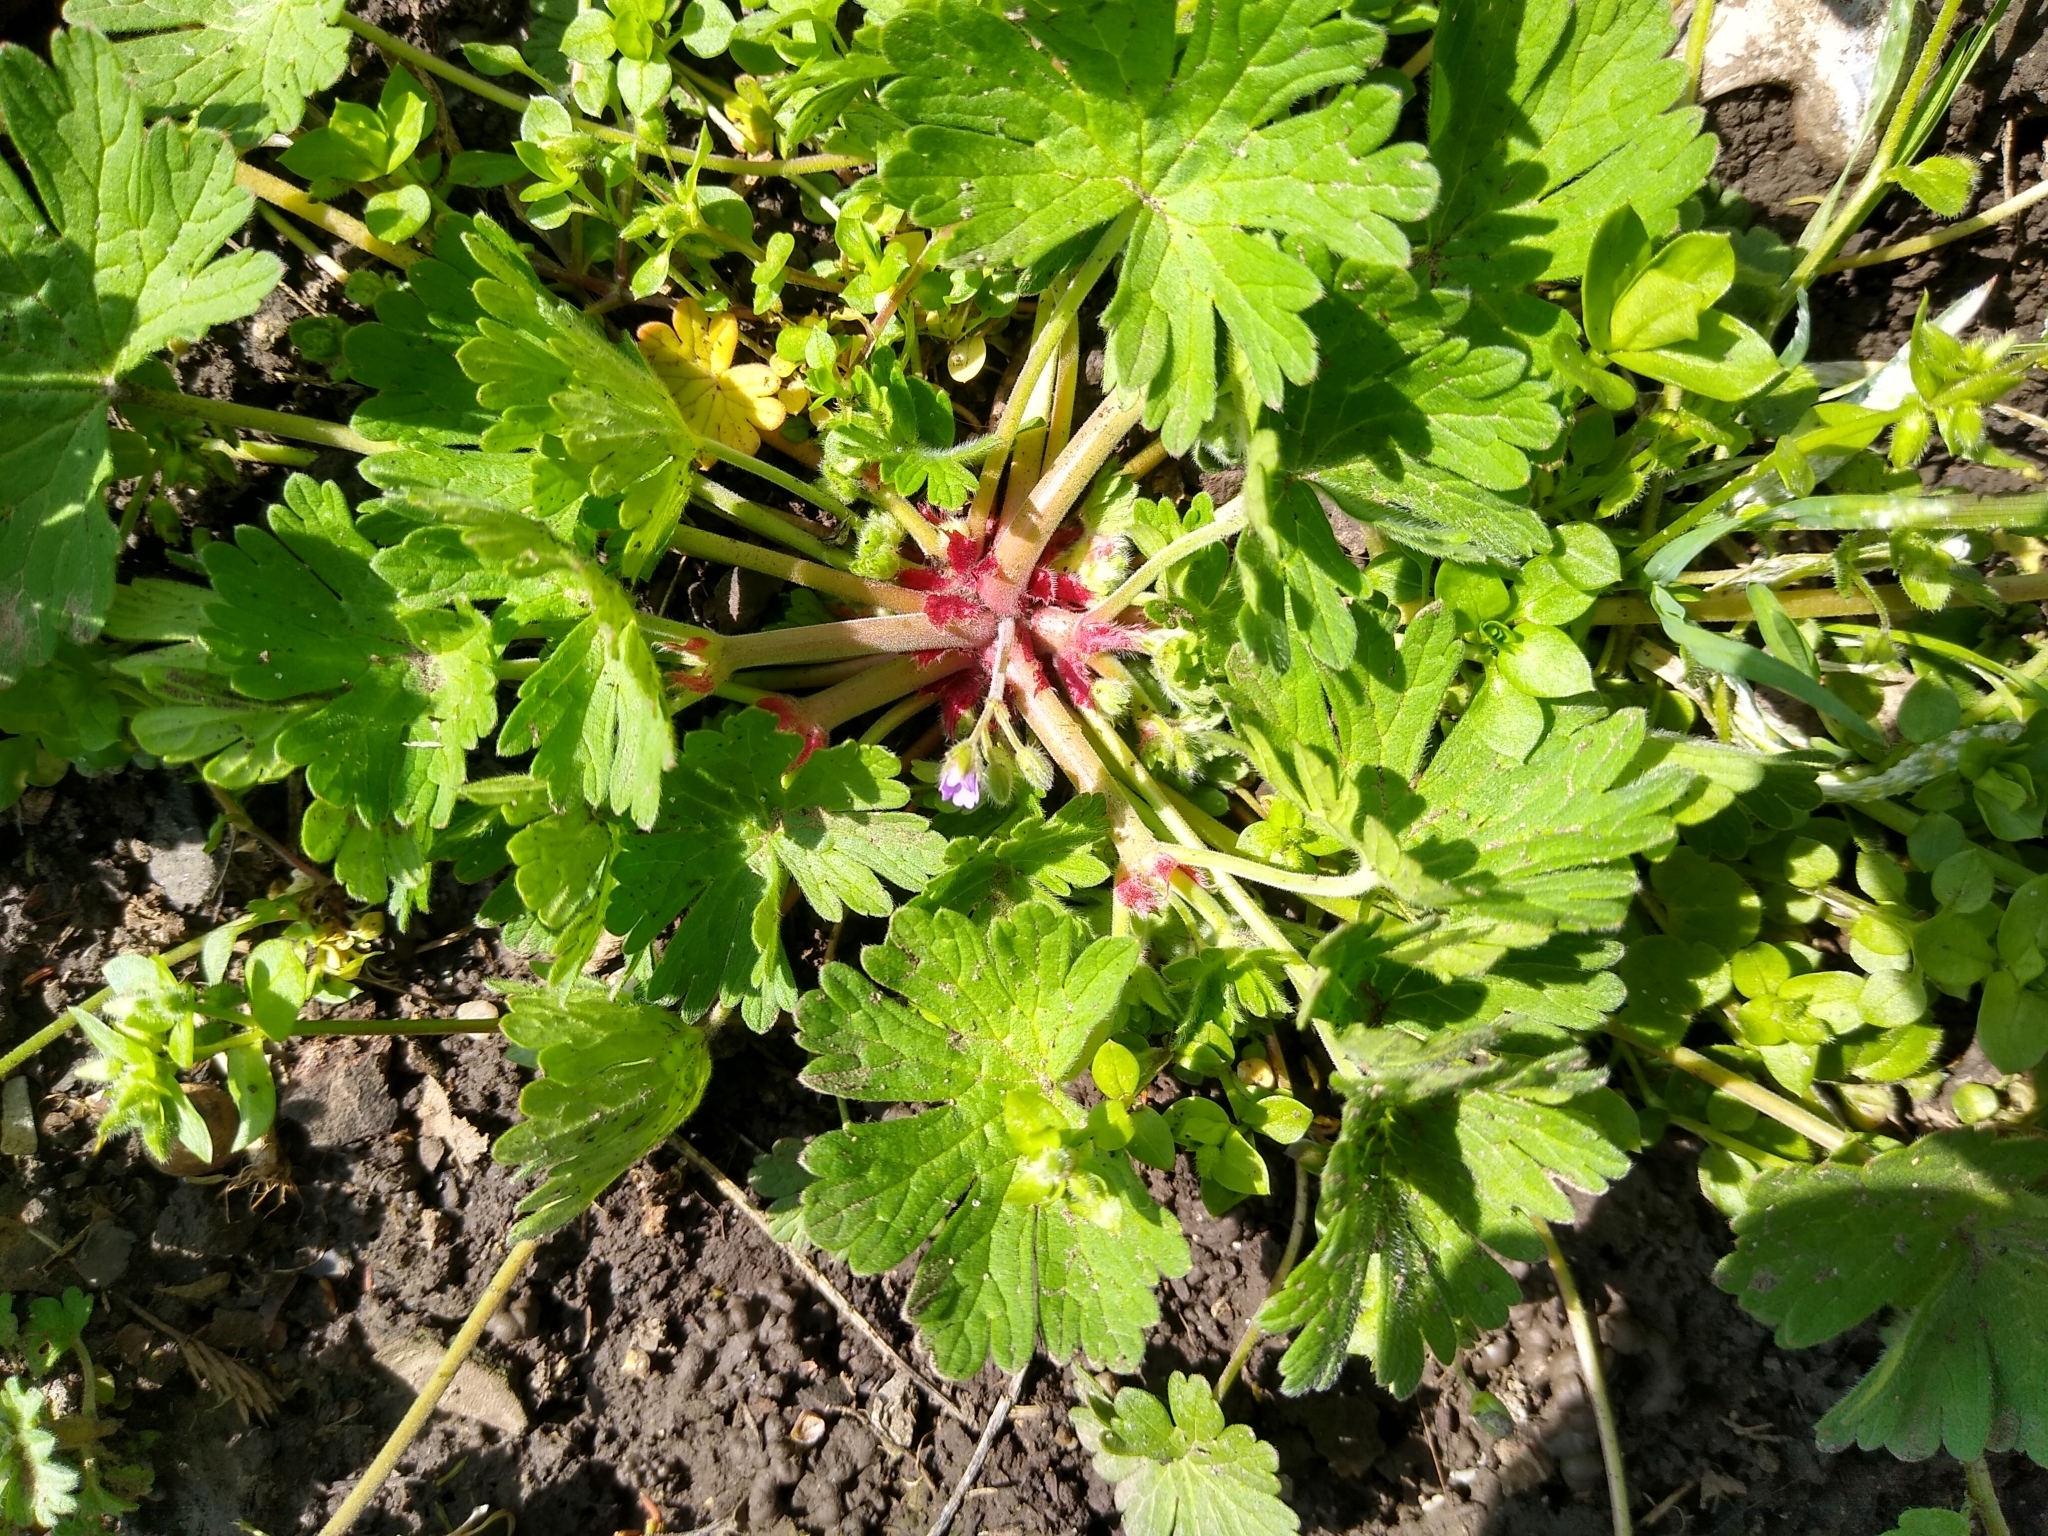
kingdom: Plantae
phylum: Tracheophyta
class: Magnoliopsida
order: Geraniales
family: Geraniaceae
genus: Geranium
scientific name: Geranium pusillum
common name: Small geranium
